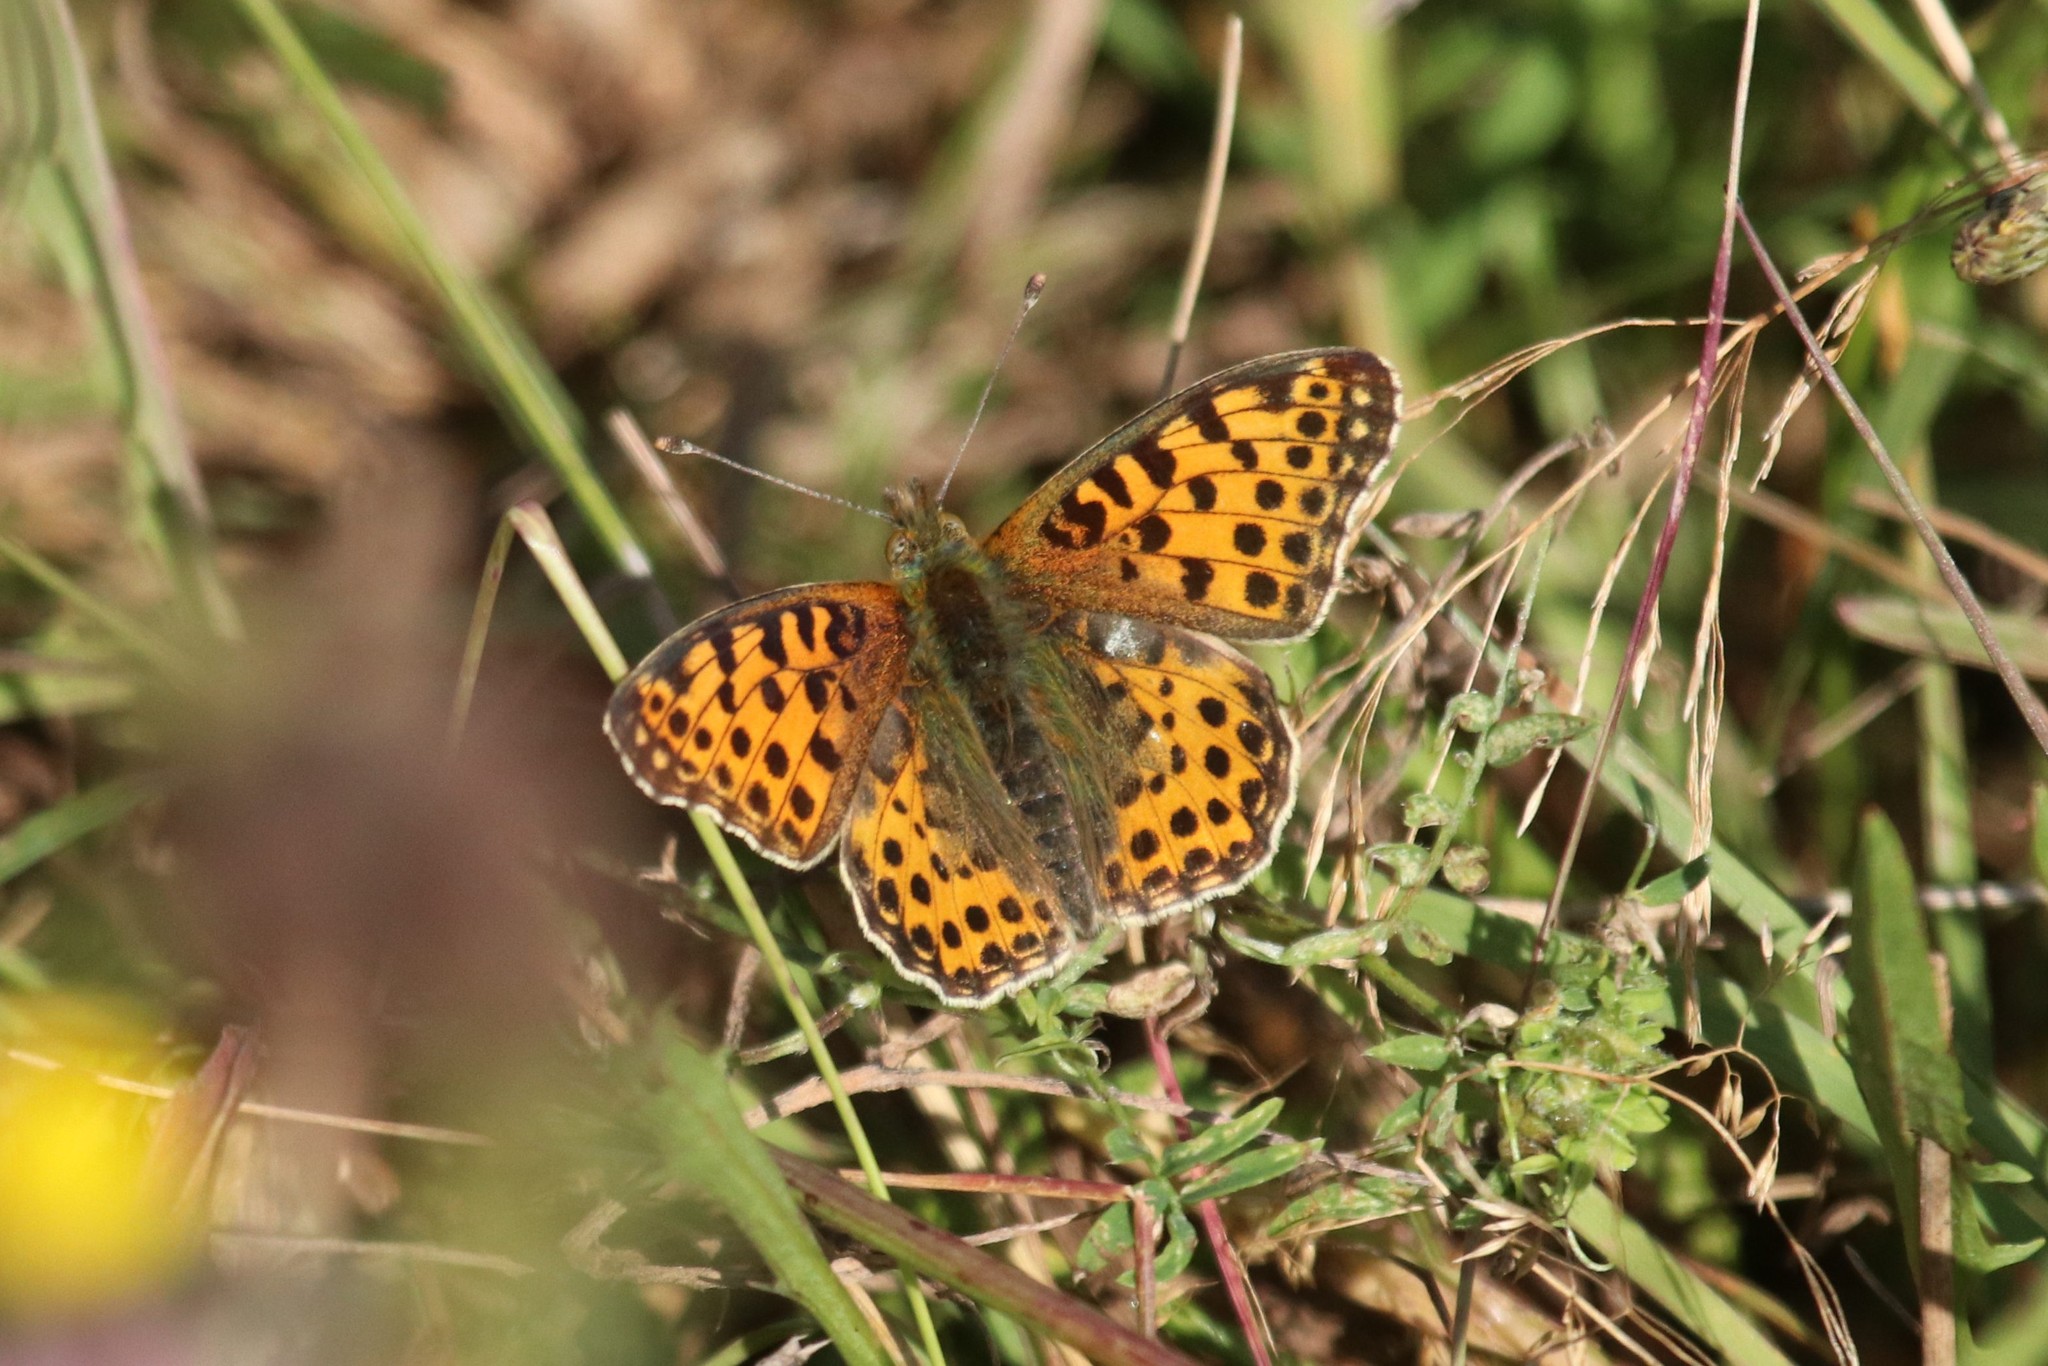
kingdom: Animalia
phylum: Arthropoda
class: Insecta
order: Lepidoptera
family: Nymphalidae
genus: Issoria
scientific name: Issoria lathonia
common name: Queen of spain fritillary
